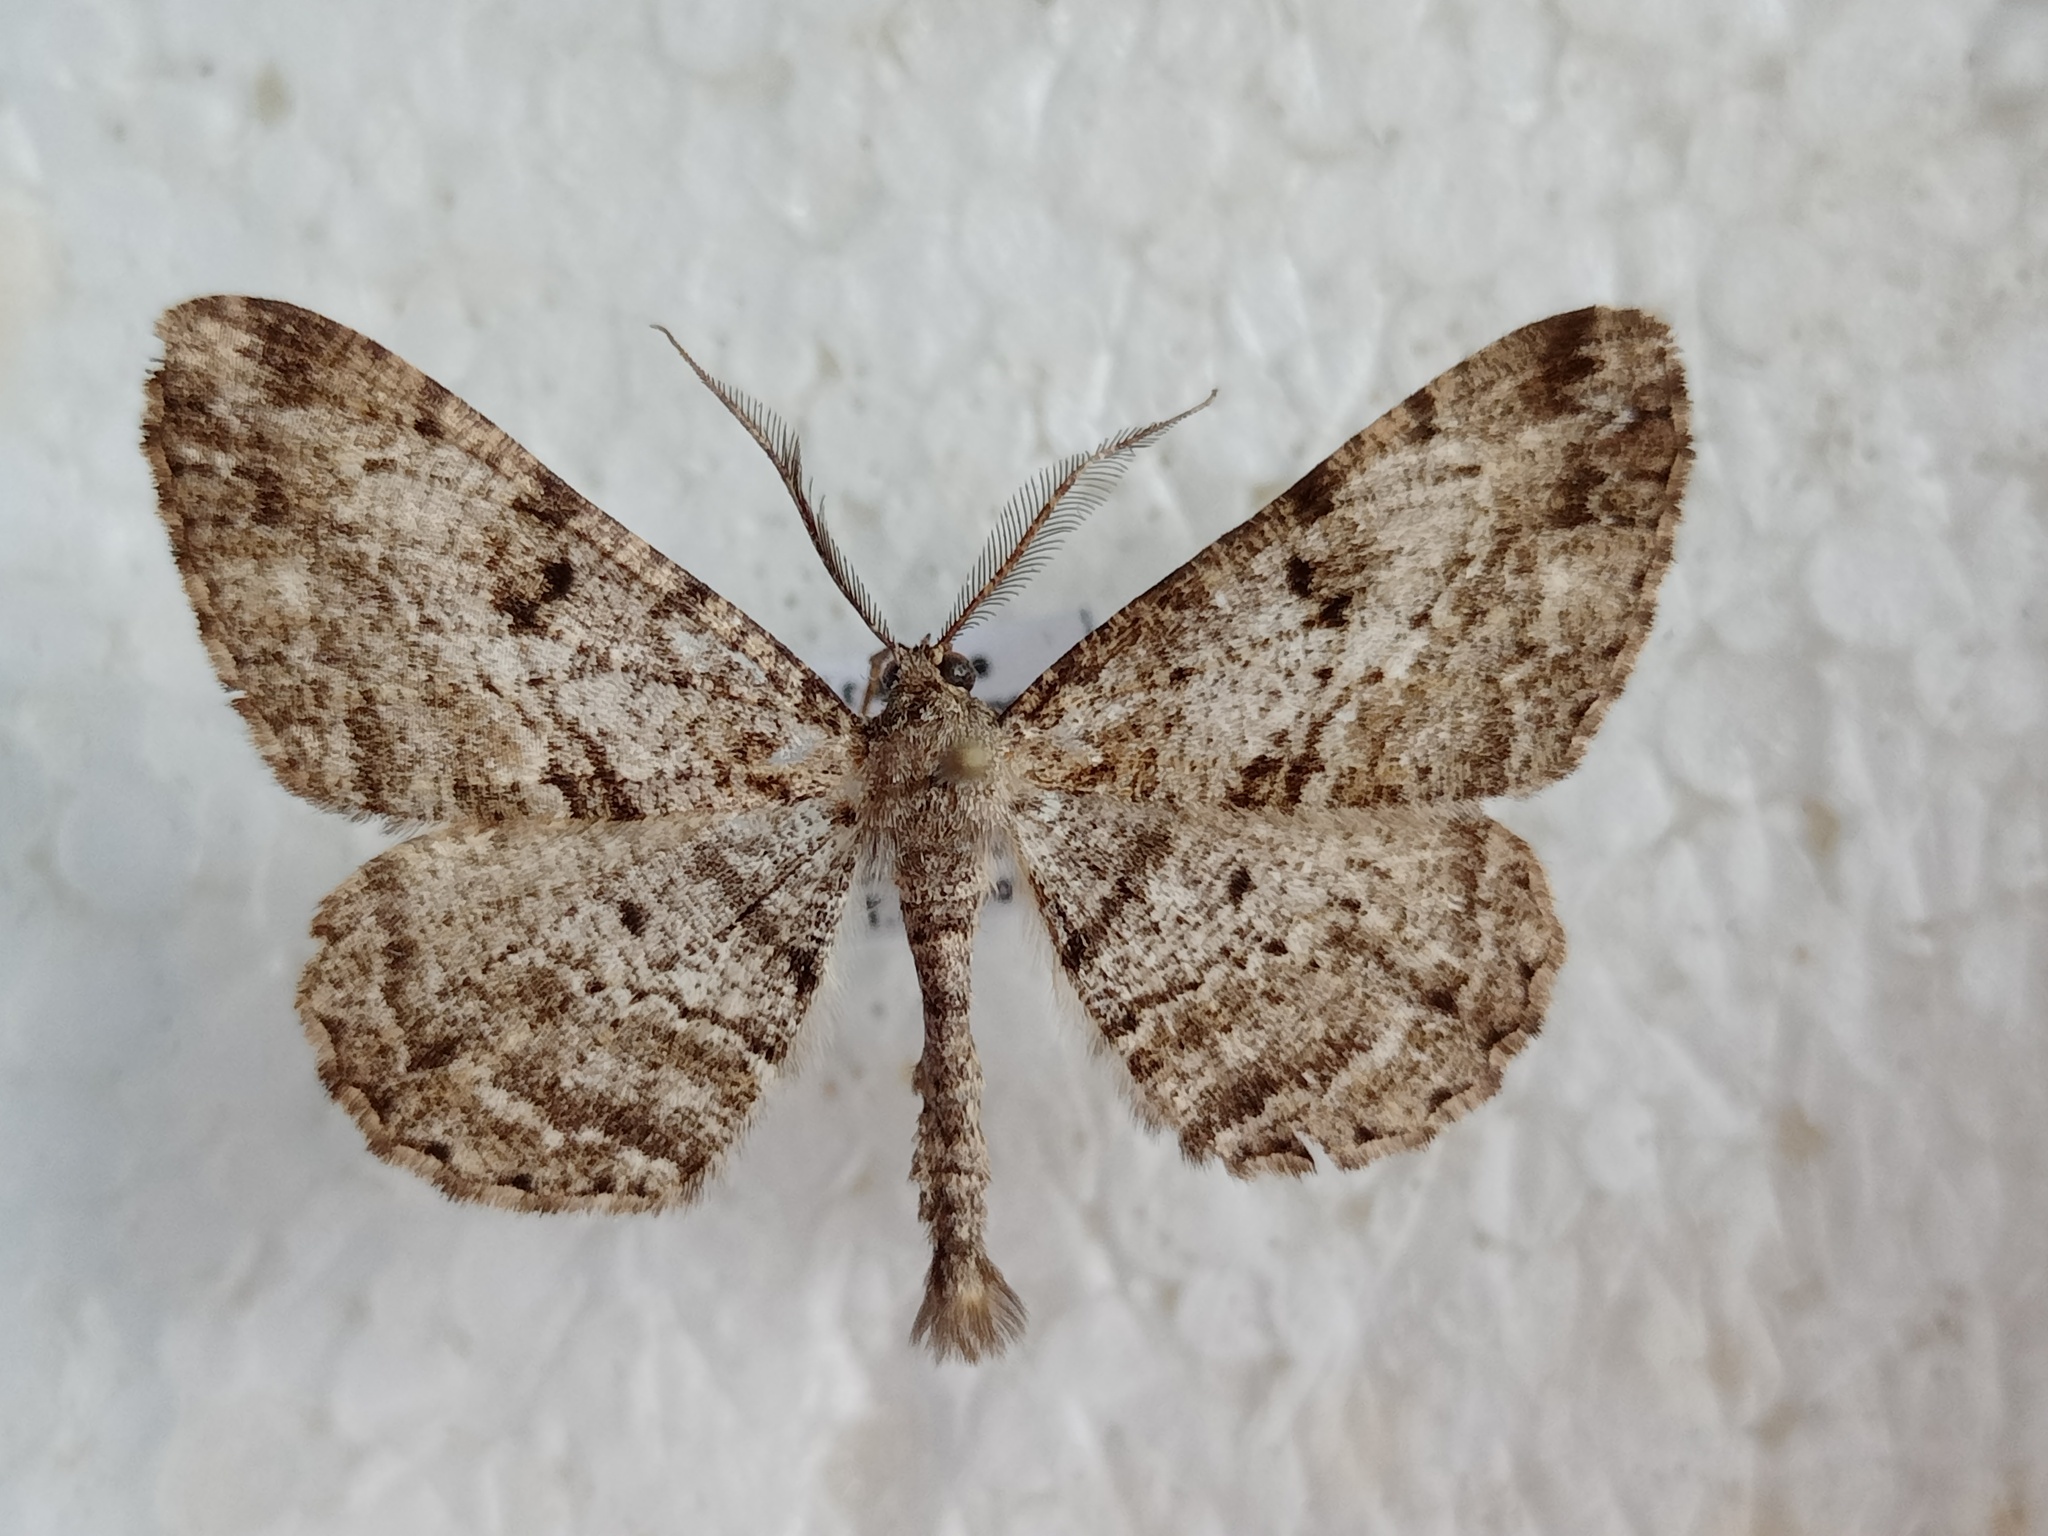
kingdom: Animalia
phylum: Arthropoda
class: Insecta
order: Lepidoptera
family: Geometridae
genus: Peribatodes
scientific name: Peribatodes rhomboidaria
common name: Willow beauty
